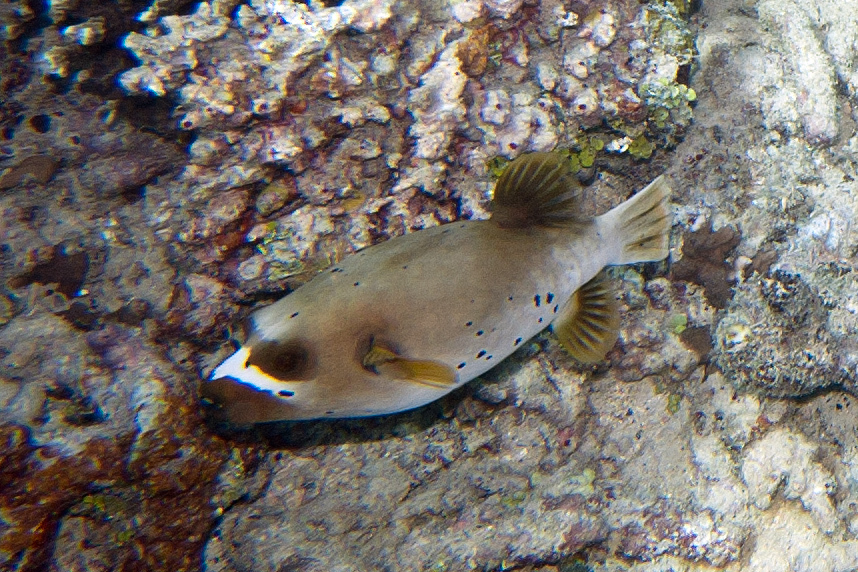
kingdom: Animalia
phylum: Chordata
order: Tetraodontiformes
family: Tetraodontidae
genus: Arothron
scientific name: Arothron nigropunctatus
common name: Black spotted blow fish
